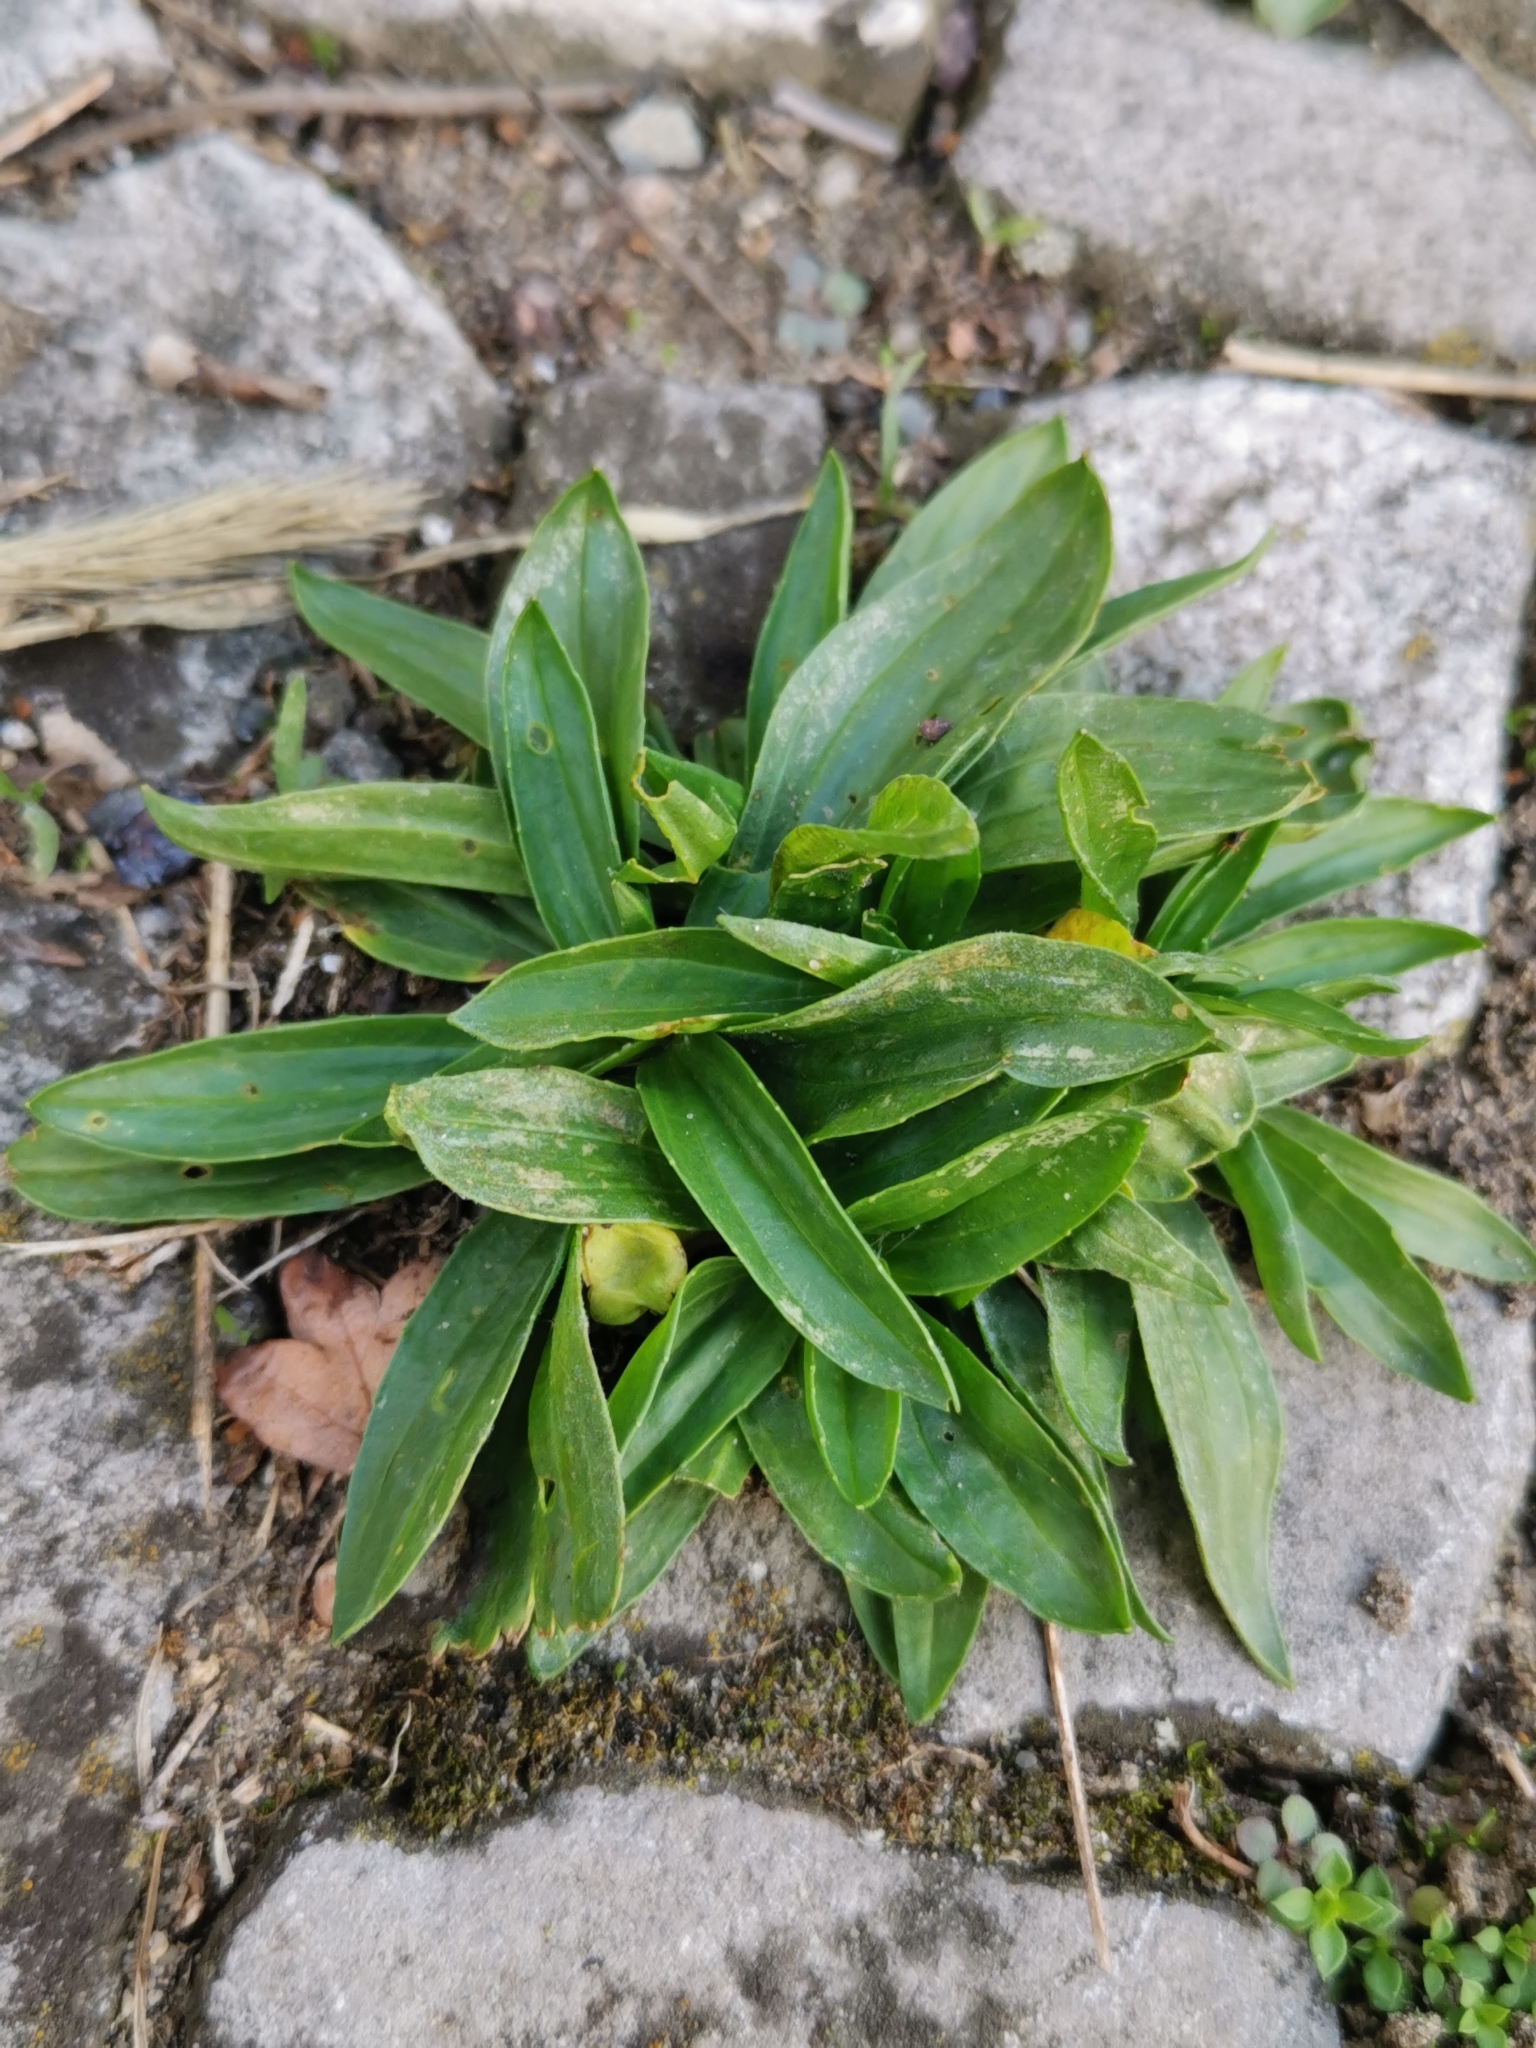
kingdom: Plantae
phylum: Tracheophyta
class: Magnoliopsida
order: Lamiales
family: Plantaginaceae
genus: Plantago
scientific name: Plantago lanceolata
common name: Ribwort plantain
